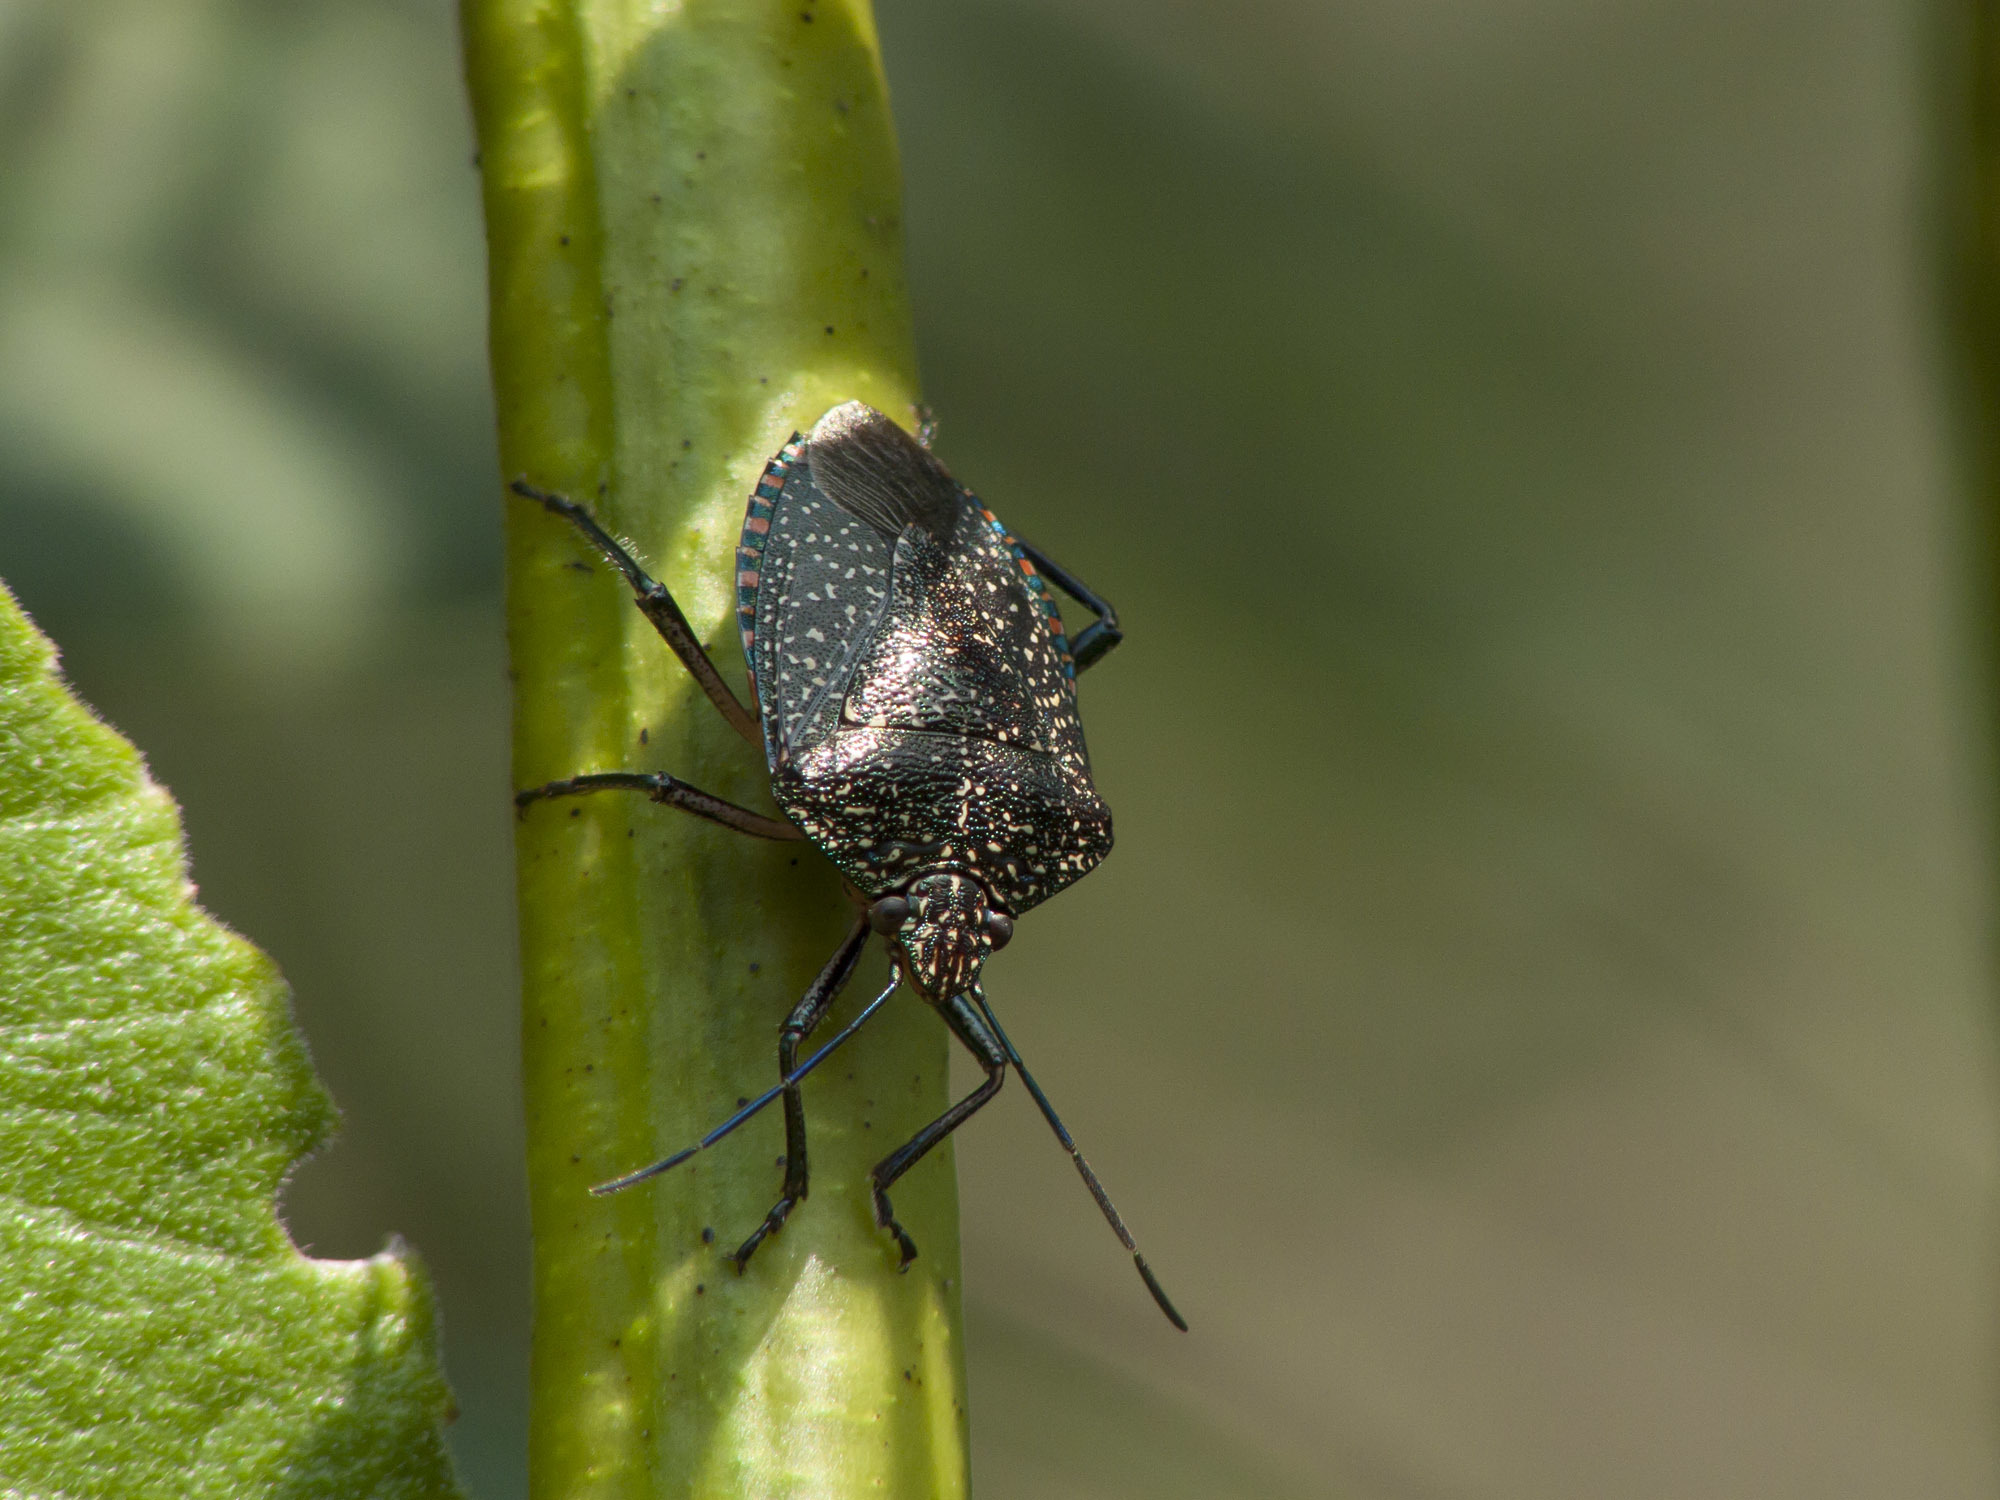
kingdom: Animalia
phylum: Arthropoda
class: Insecta
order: Hemiptera
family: Pentatomidae
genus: Pellaea
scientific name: Pellaea stictica
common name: Stink bug
